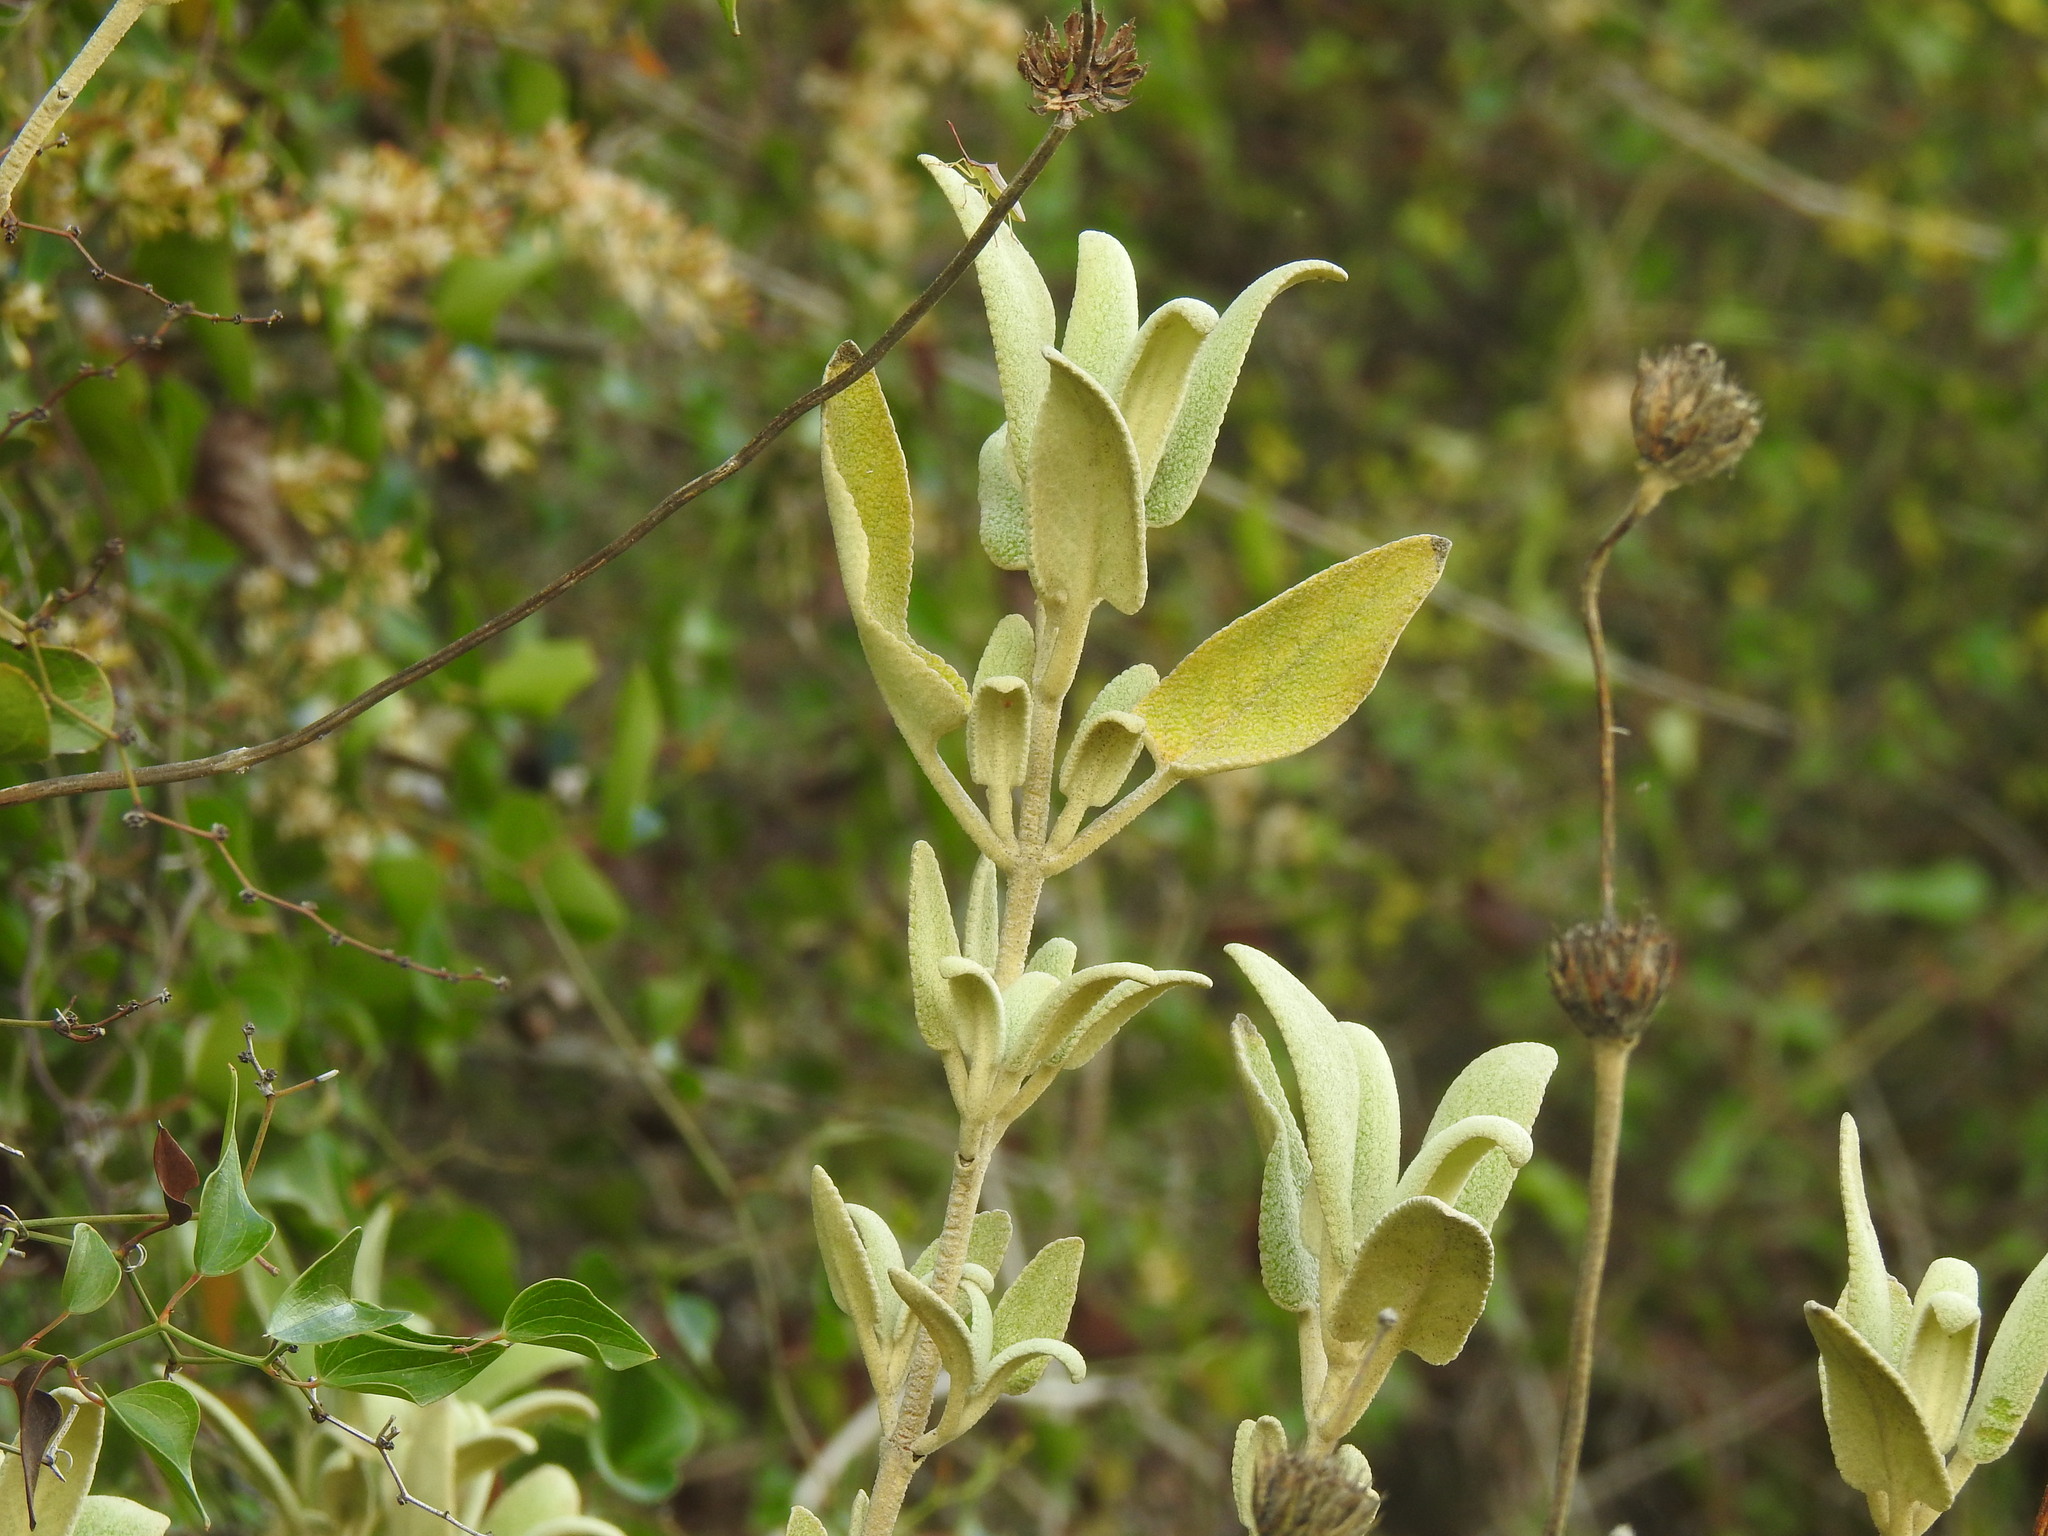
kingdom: Plantae
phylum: Tracheophyta
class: Magnoliopsida
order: Lamiales
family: Lamiaceae
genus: Phlomis
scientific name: Phlomis purpurea
